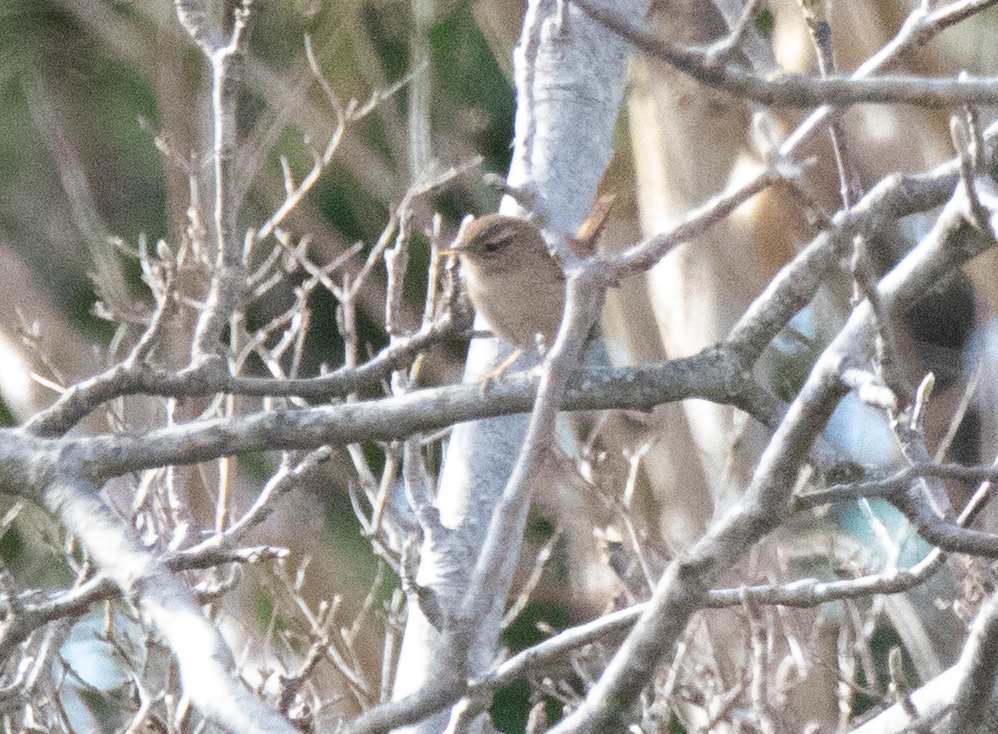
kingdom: Animalia
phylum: Chordata
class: Aves
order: Passeriformes
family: Troglodytidae
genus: Troglodytes
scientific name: Troglodytes troglodytes
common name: Eurasian wren
